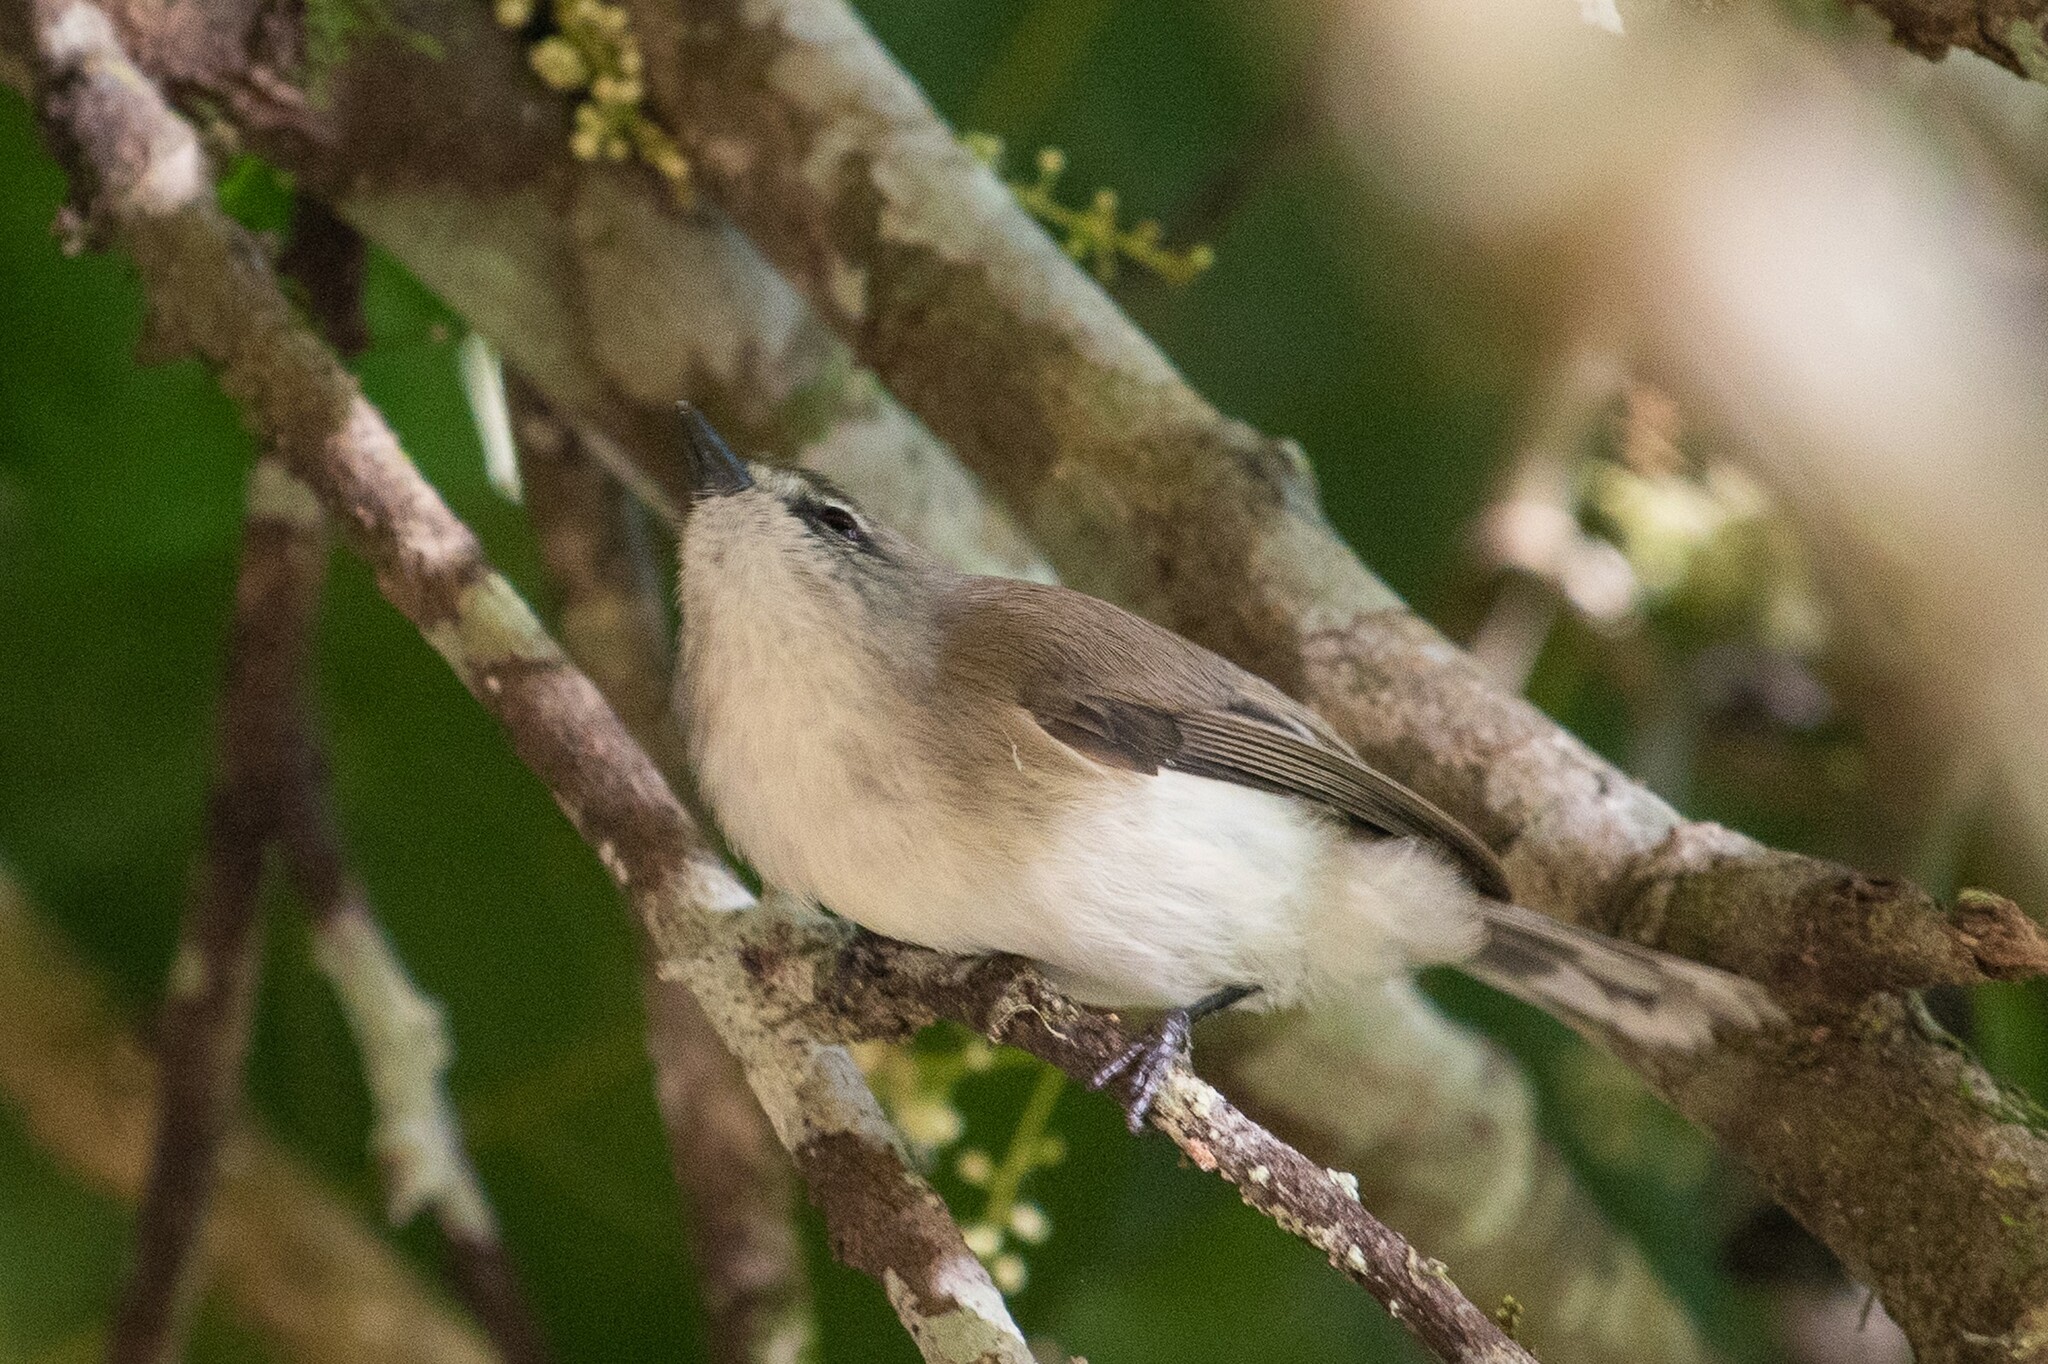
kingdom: Animalia
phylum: Chordata
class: Aves
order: Passeriformes
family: Acanthizidae
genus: Gerygone
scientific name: Gerygone mouki
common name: Brown gerygone
